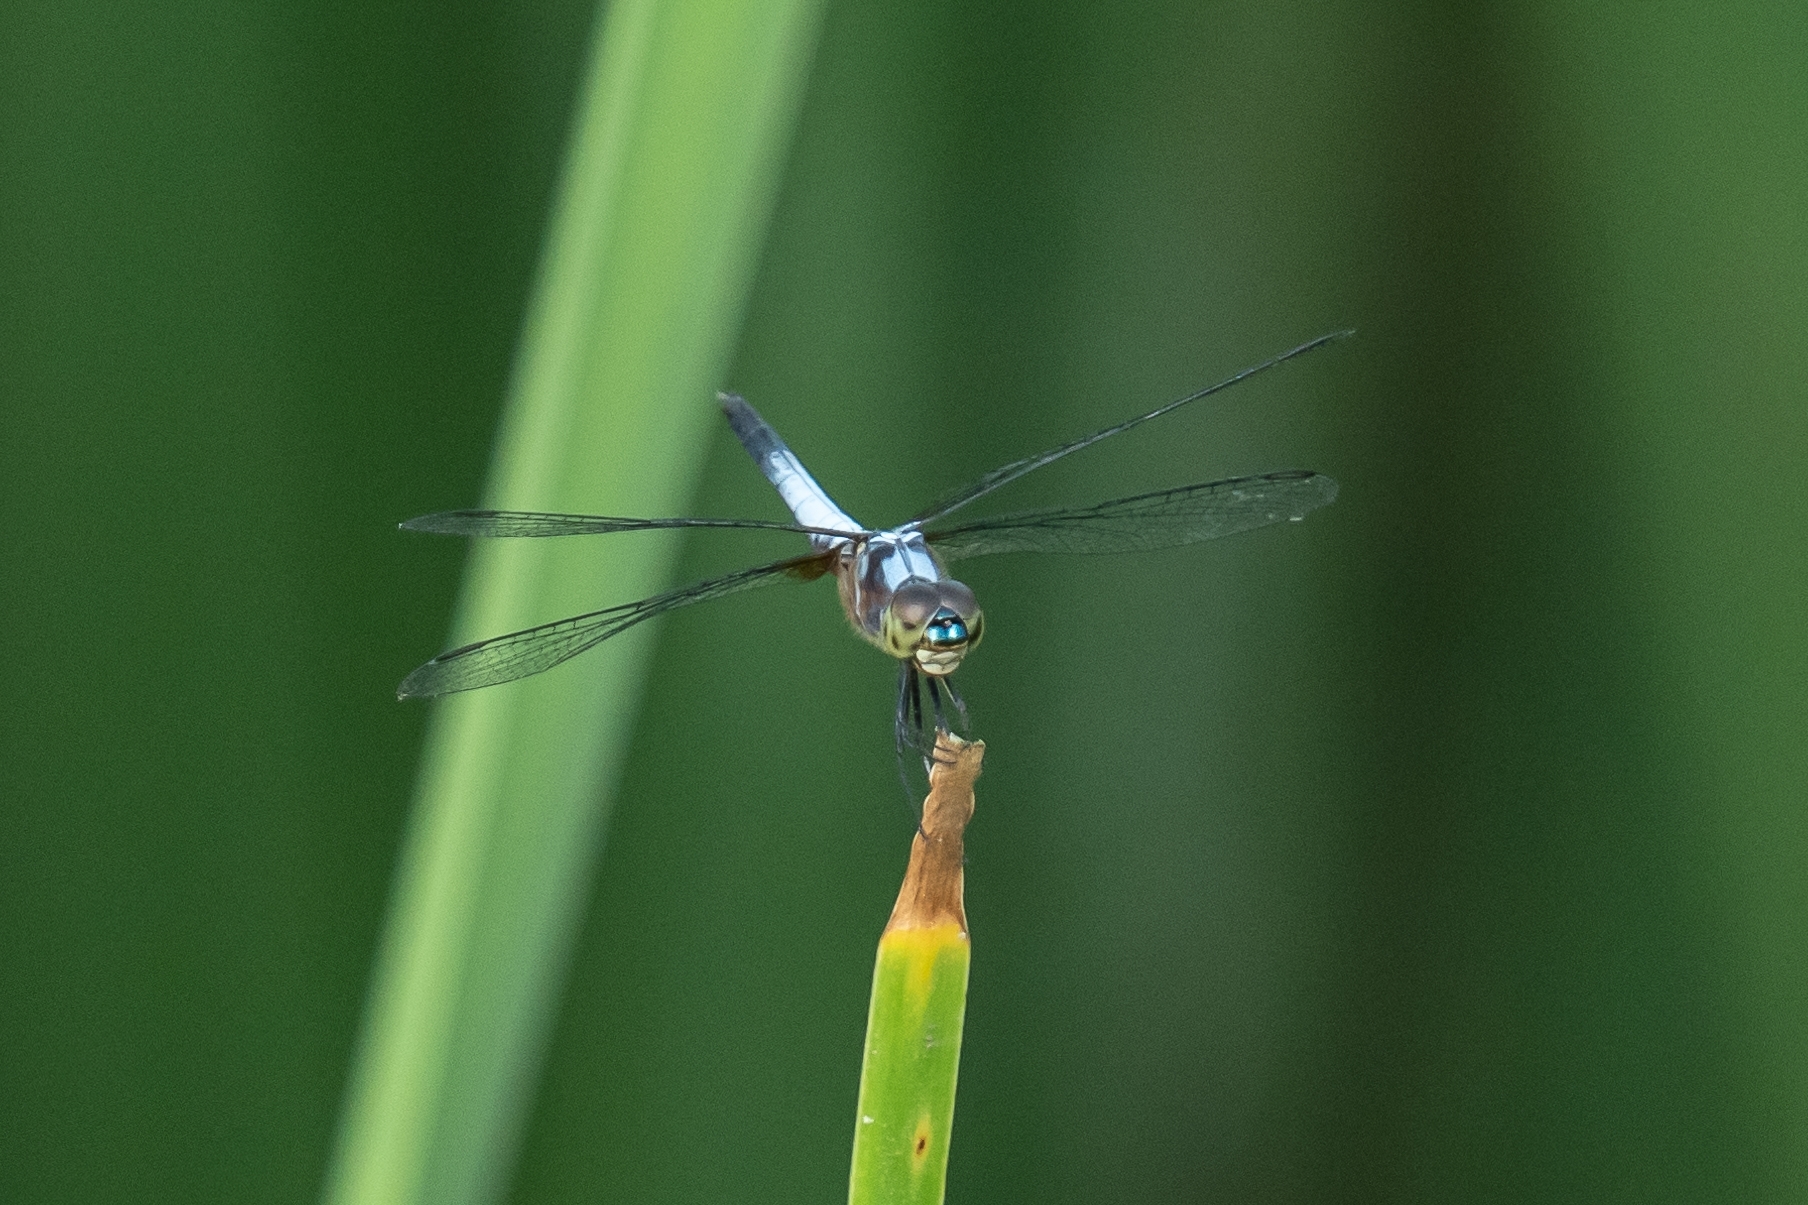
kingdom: Animalia
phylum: Arthropoda
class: Insecta
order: Odonata
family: Libellulidae
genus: Brachydiplax
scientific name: Brachydiplax chalybea
